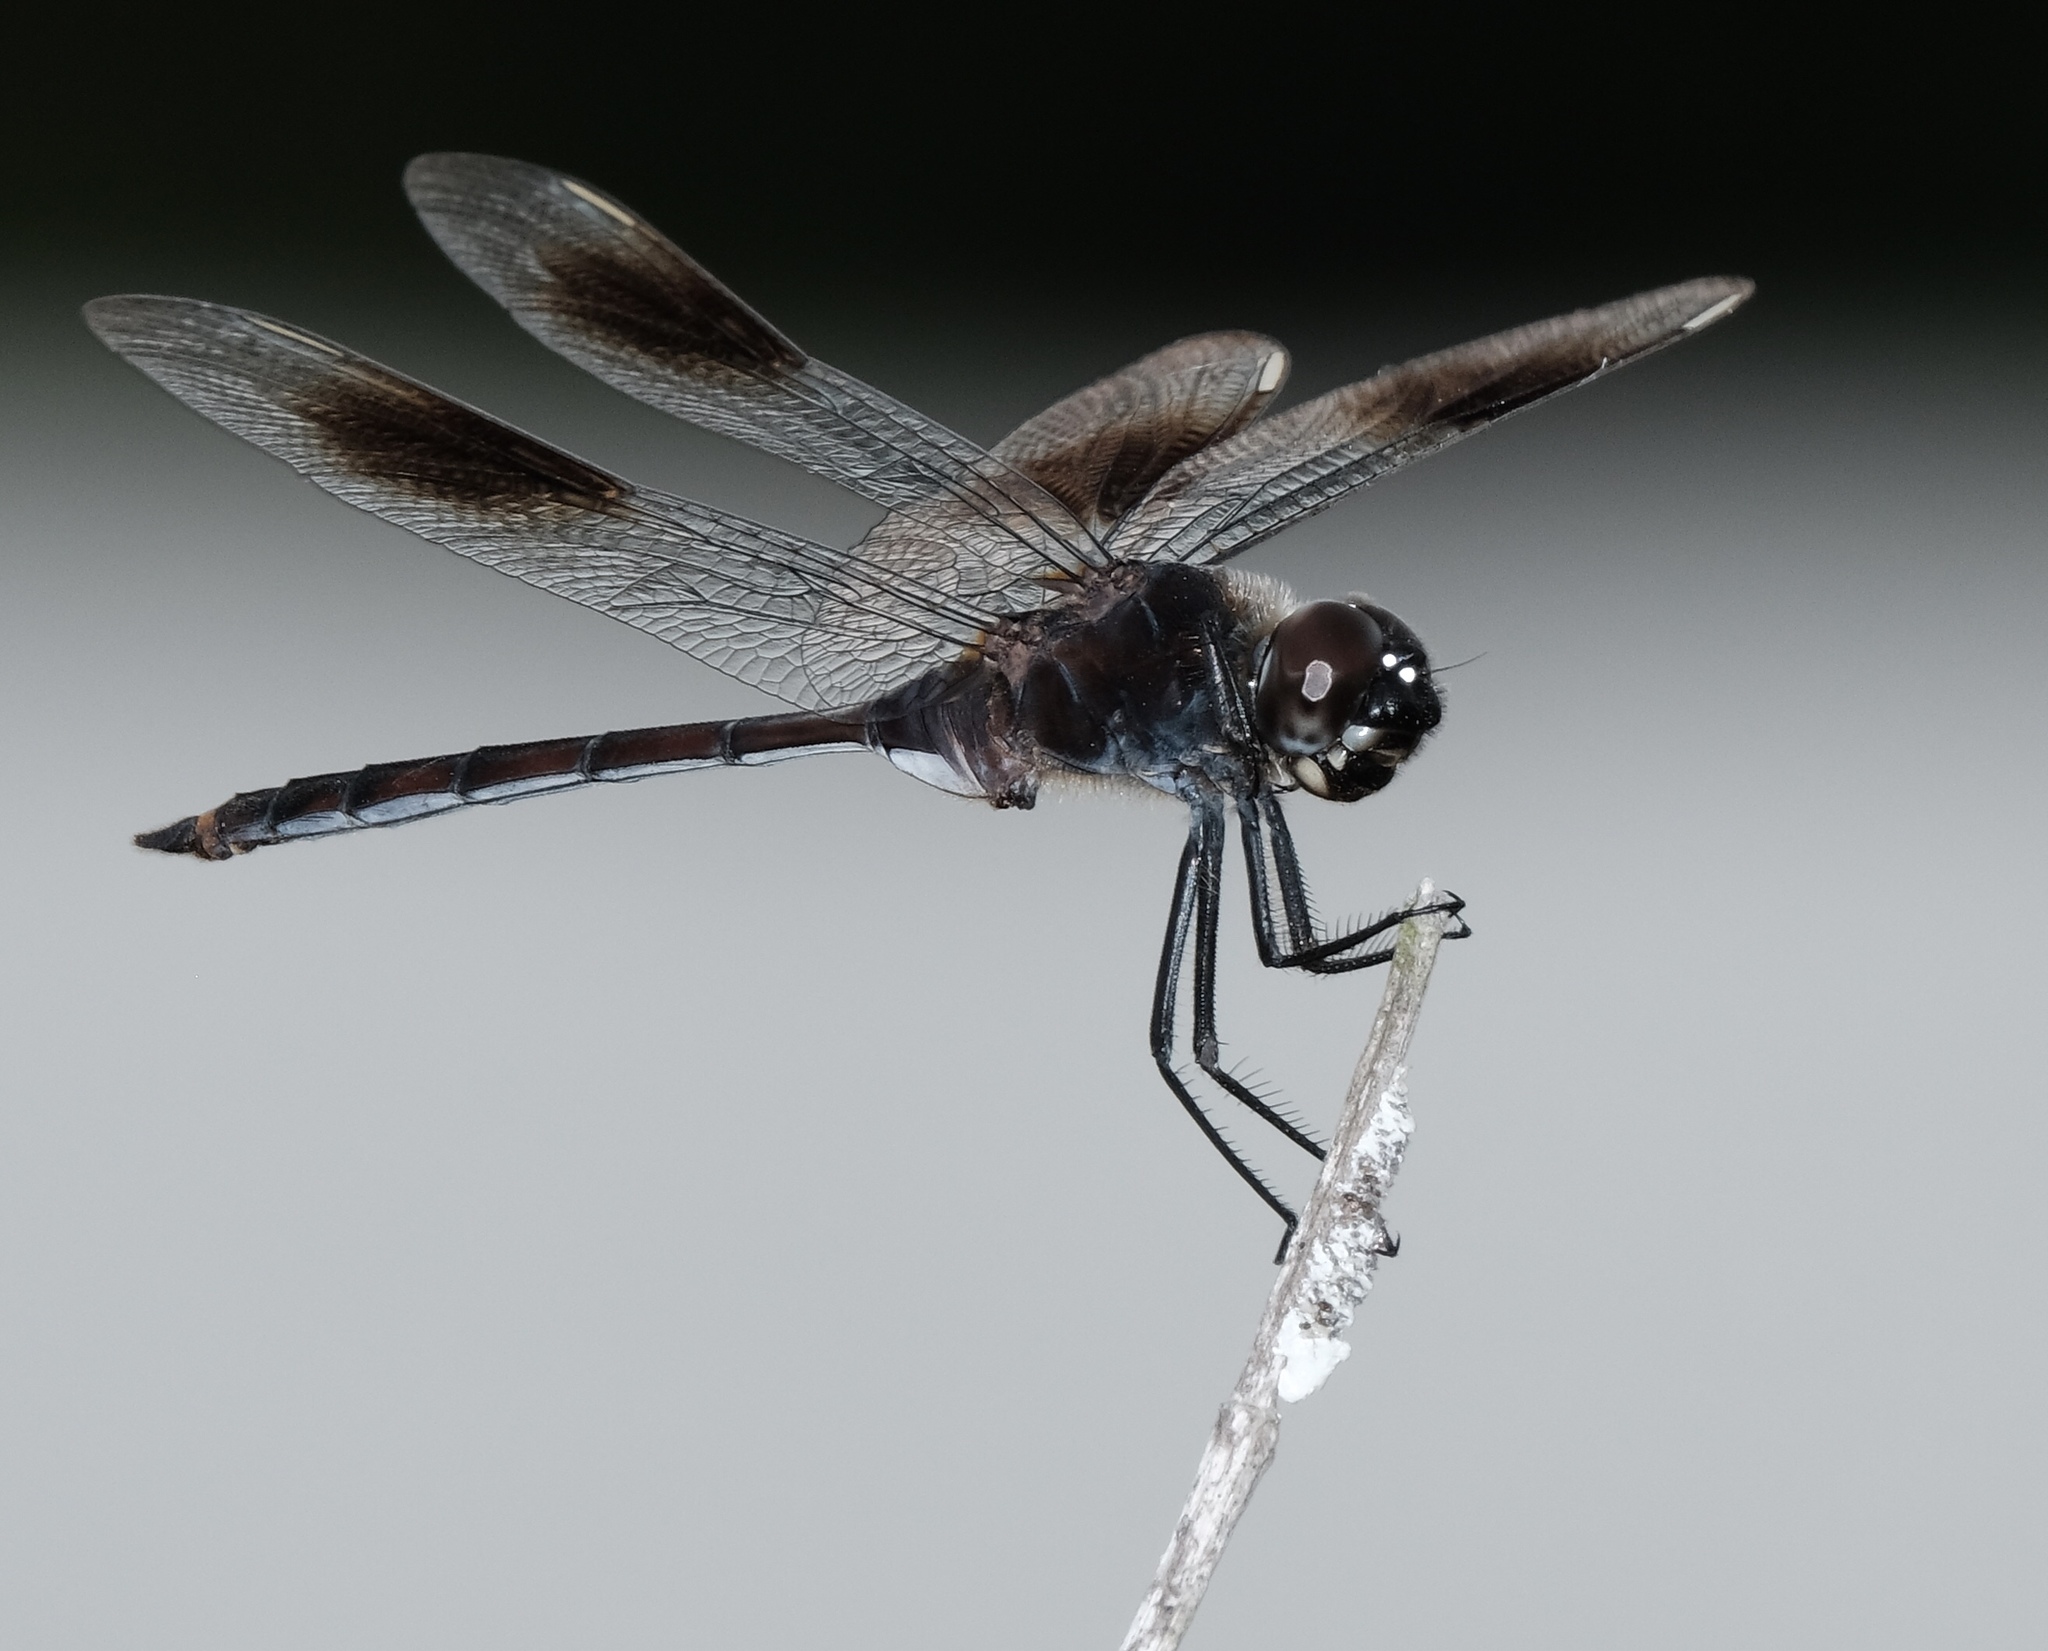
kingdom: Animalia
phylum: Arthropoda
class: Insecta
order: Odonata
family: Libellulidae
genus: Brachymesia
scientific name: Brachymesia gravida
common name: Four-spotted pennant
